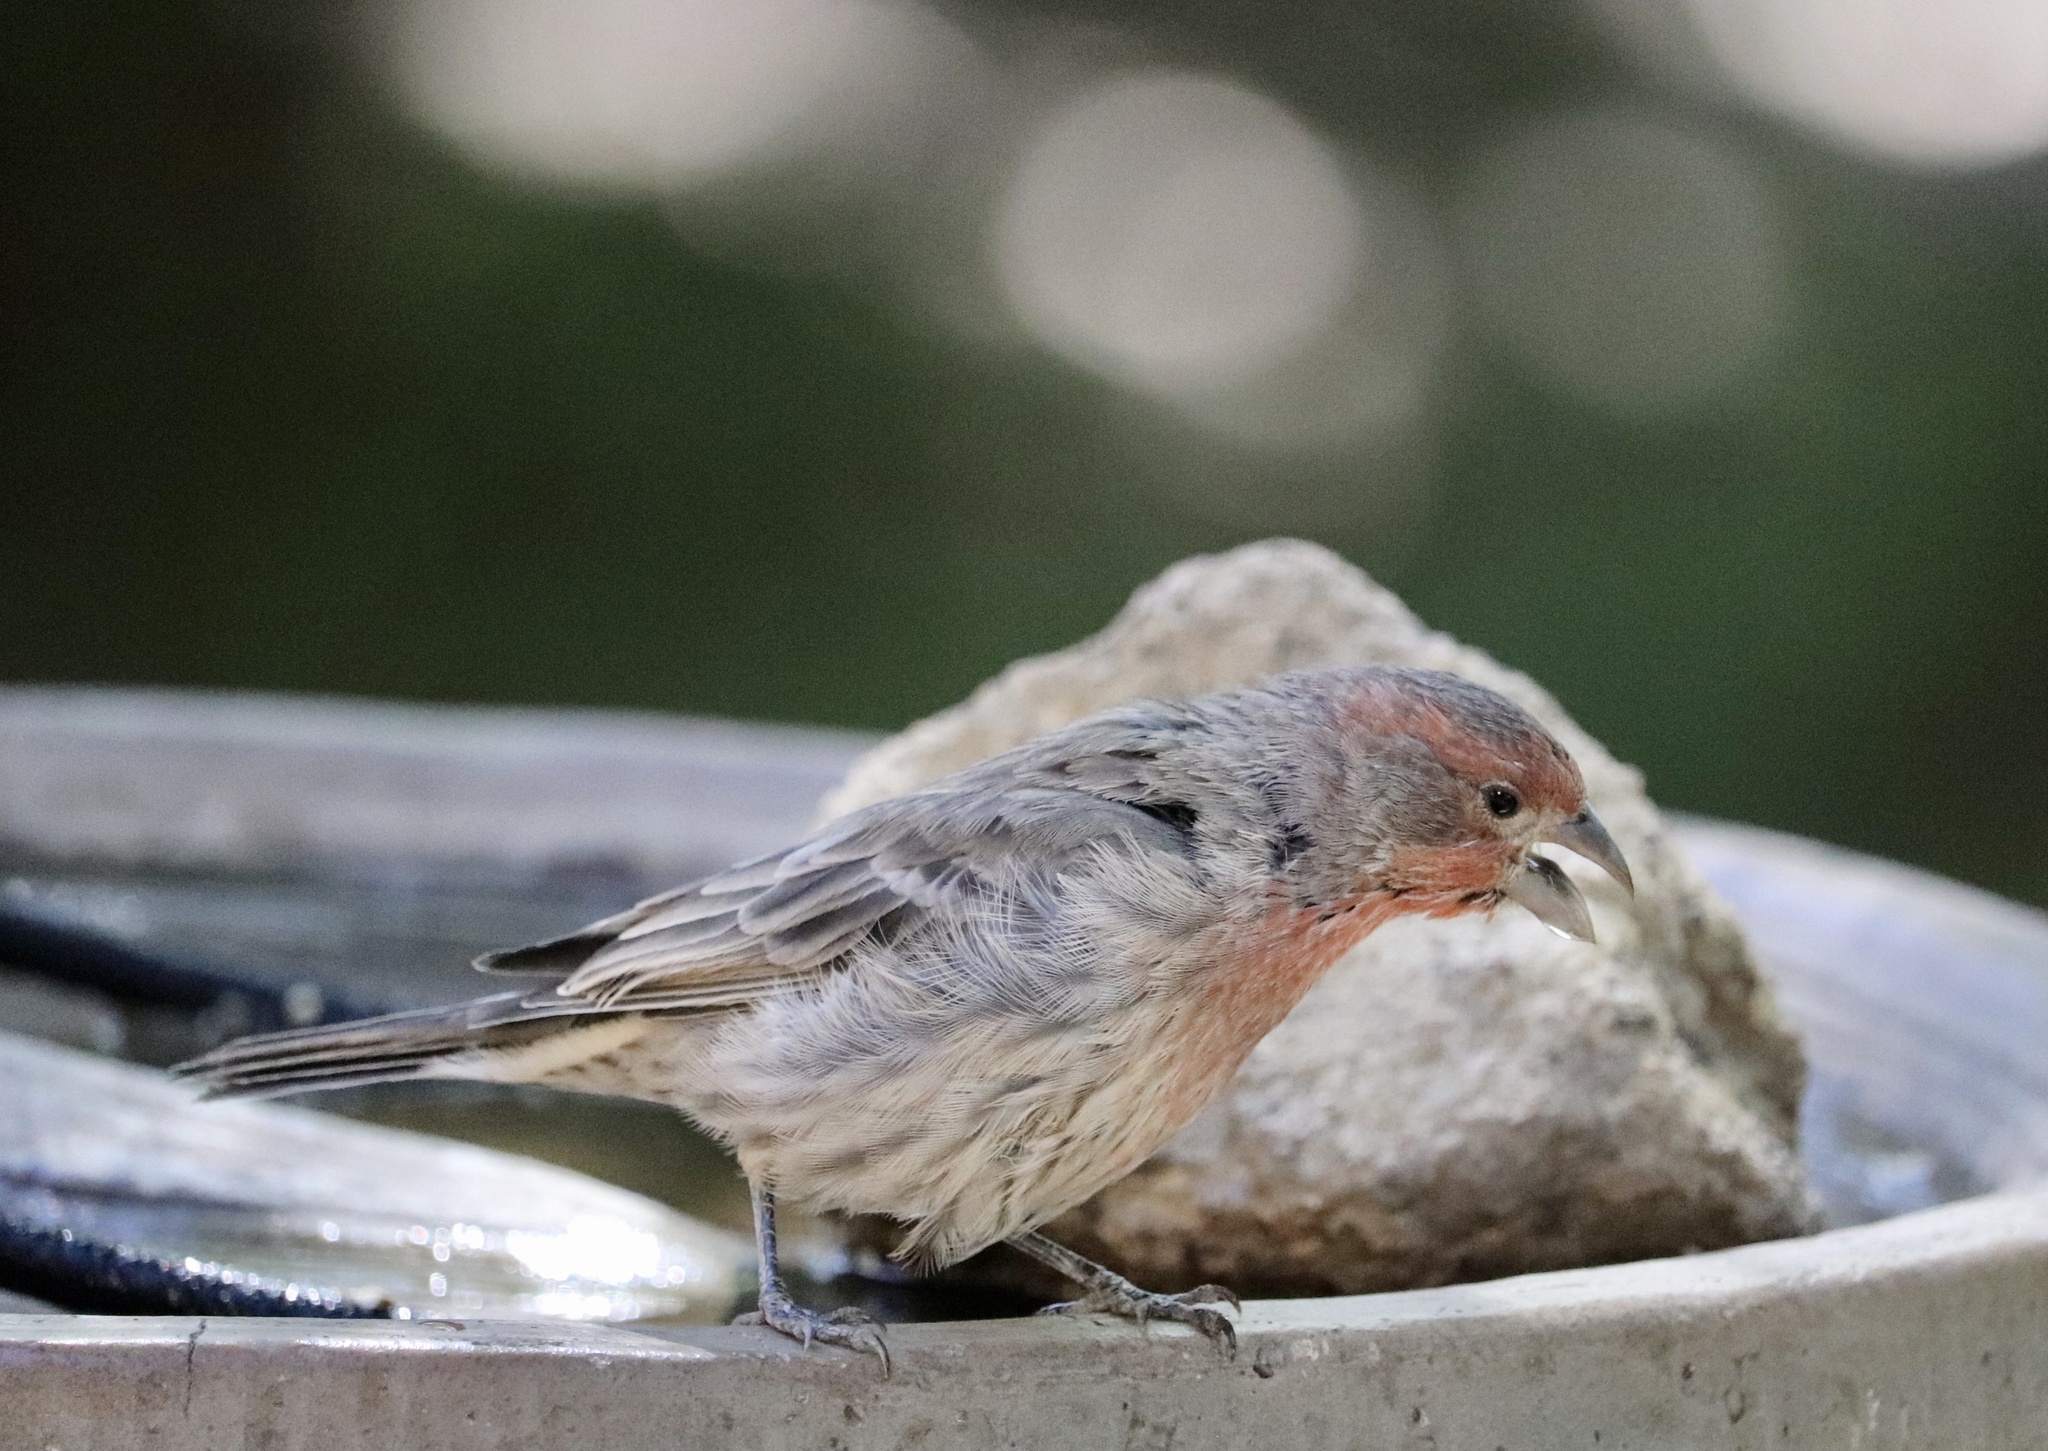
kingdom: Animalia
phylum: Chordata
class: Aves
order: Passeriformes
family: Fringillidae
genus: Haemorhous
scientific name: Haemorhous mexicanus
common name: House finch
